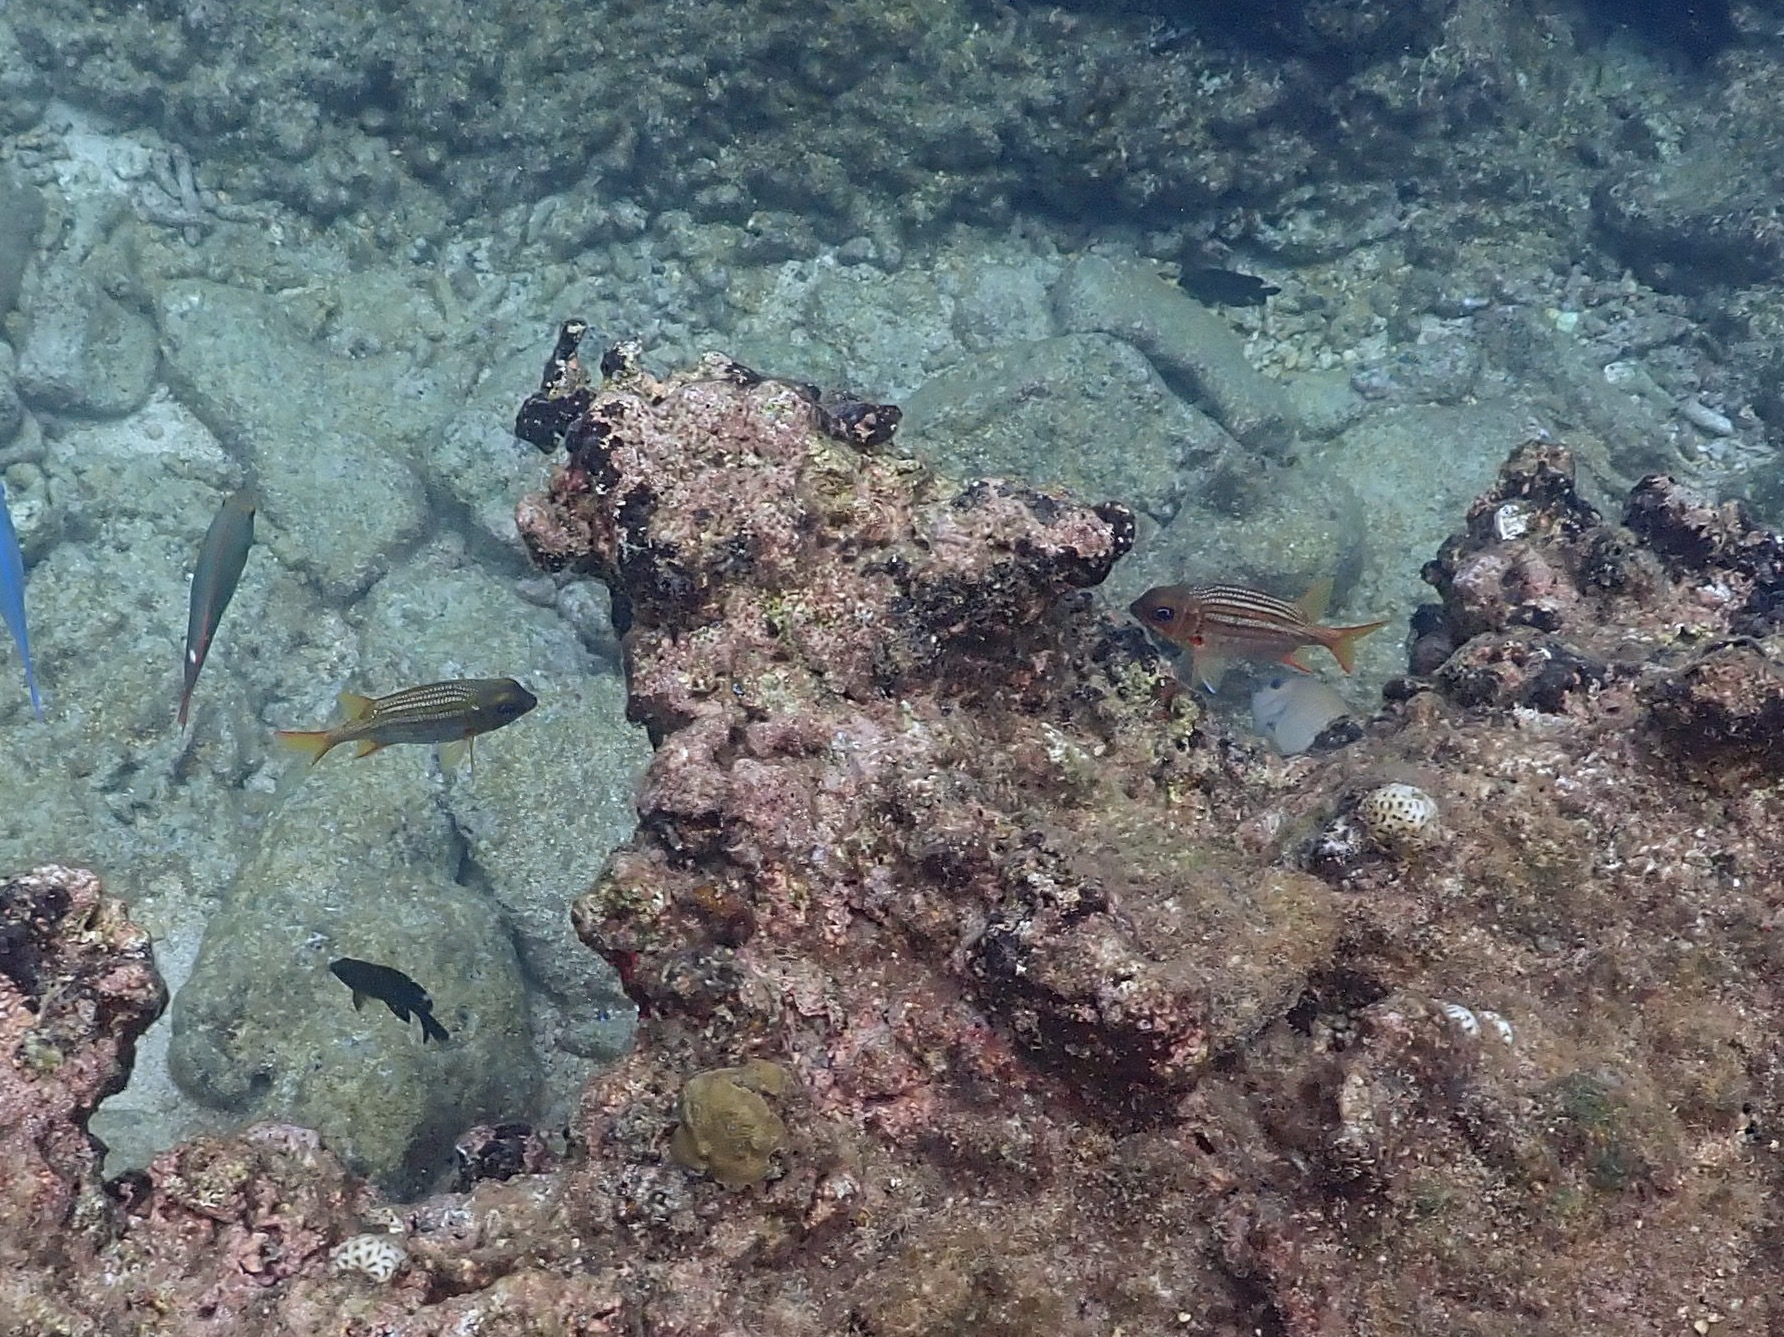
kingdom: Animalia
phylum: Chordata
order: Beryciformes
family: Holocentridae
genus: Neoniphon
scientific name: Neoniphon vexillarium
